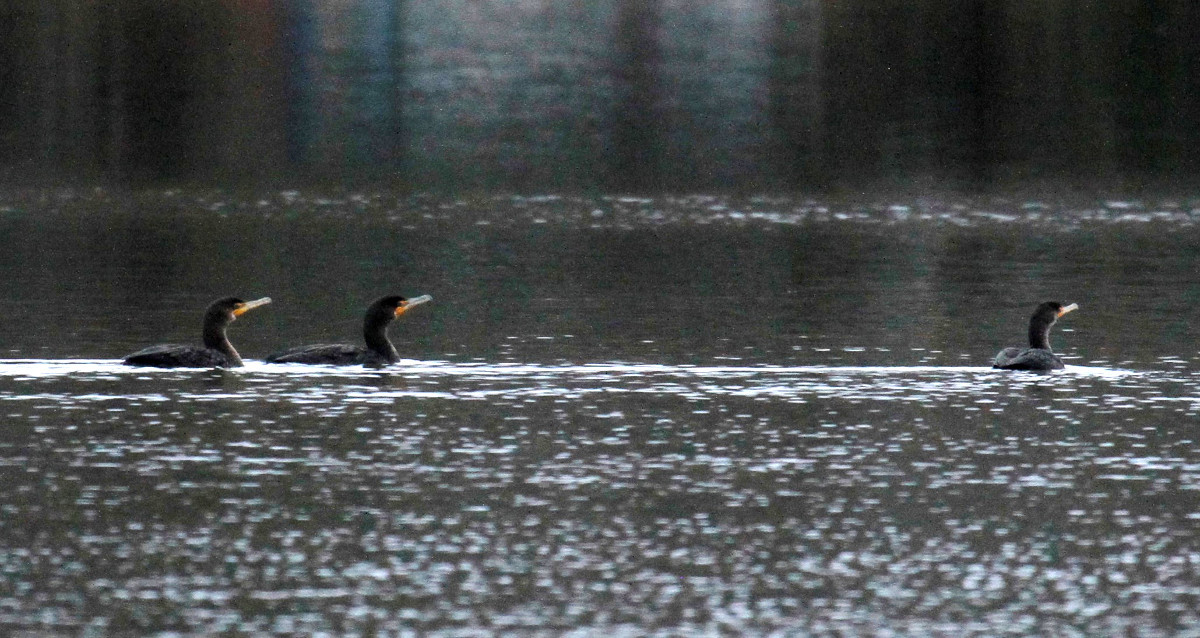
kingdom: Animalia
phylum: Chordata
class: Aves
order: Suliformes
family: Phalacrocoracidae
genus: Phalacrocorax
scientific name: Phalacrocorax auritus
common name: Double-crested cormorant
